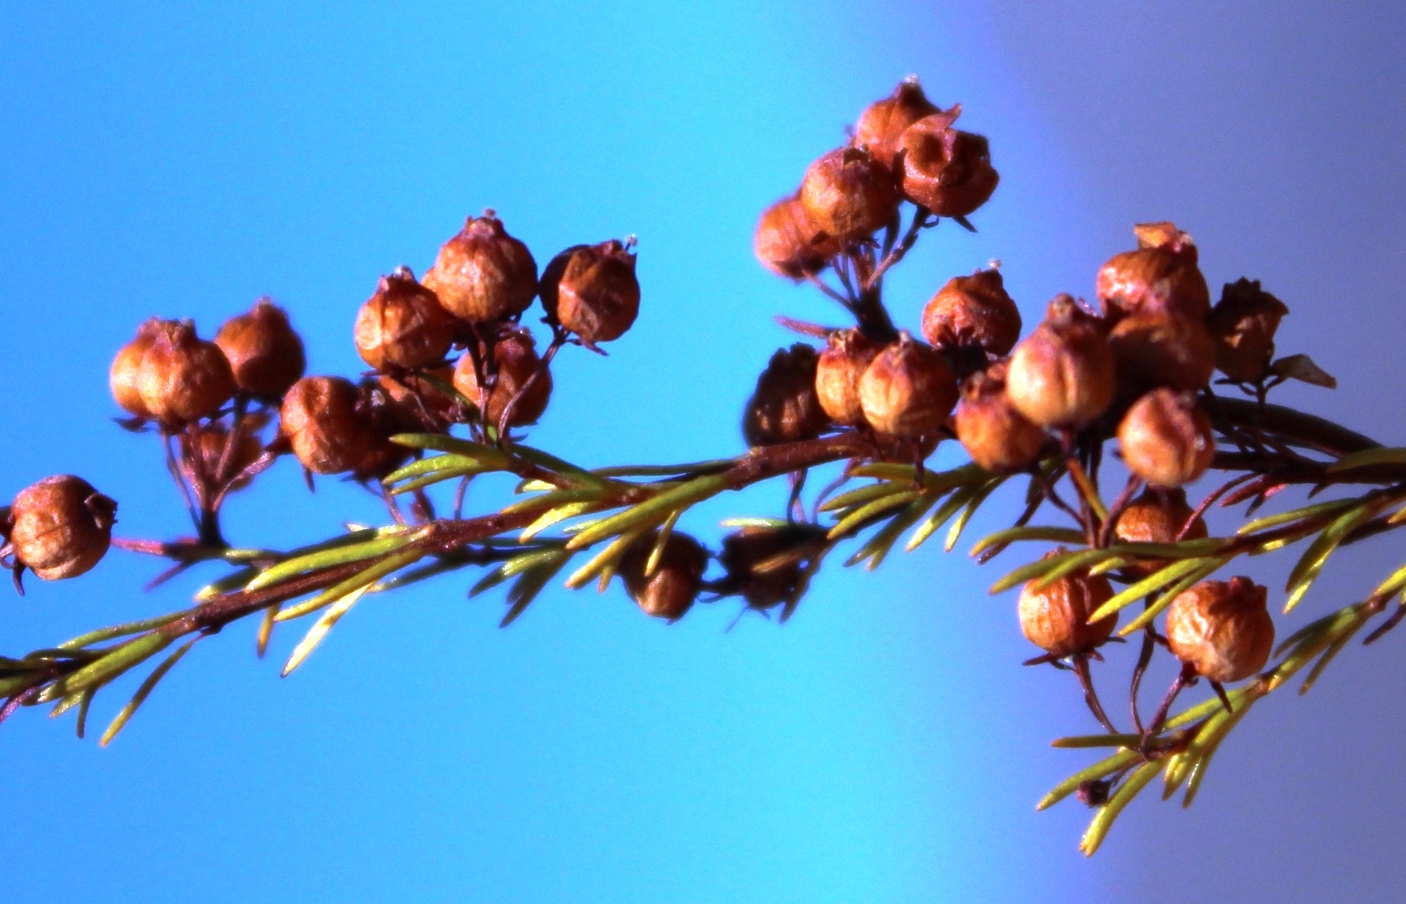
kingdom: Plantae
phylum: Tracheophyta
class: Magnoliopsida
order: Ericales
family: Ericaceae
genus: Erica
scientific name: Erica bakeri
